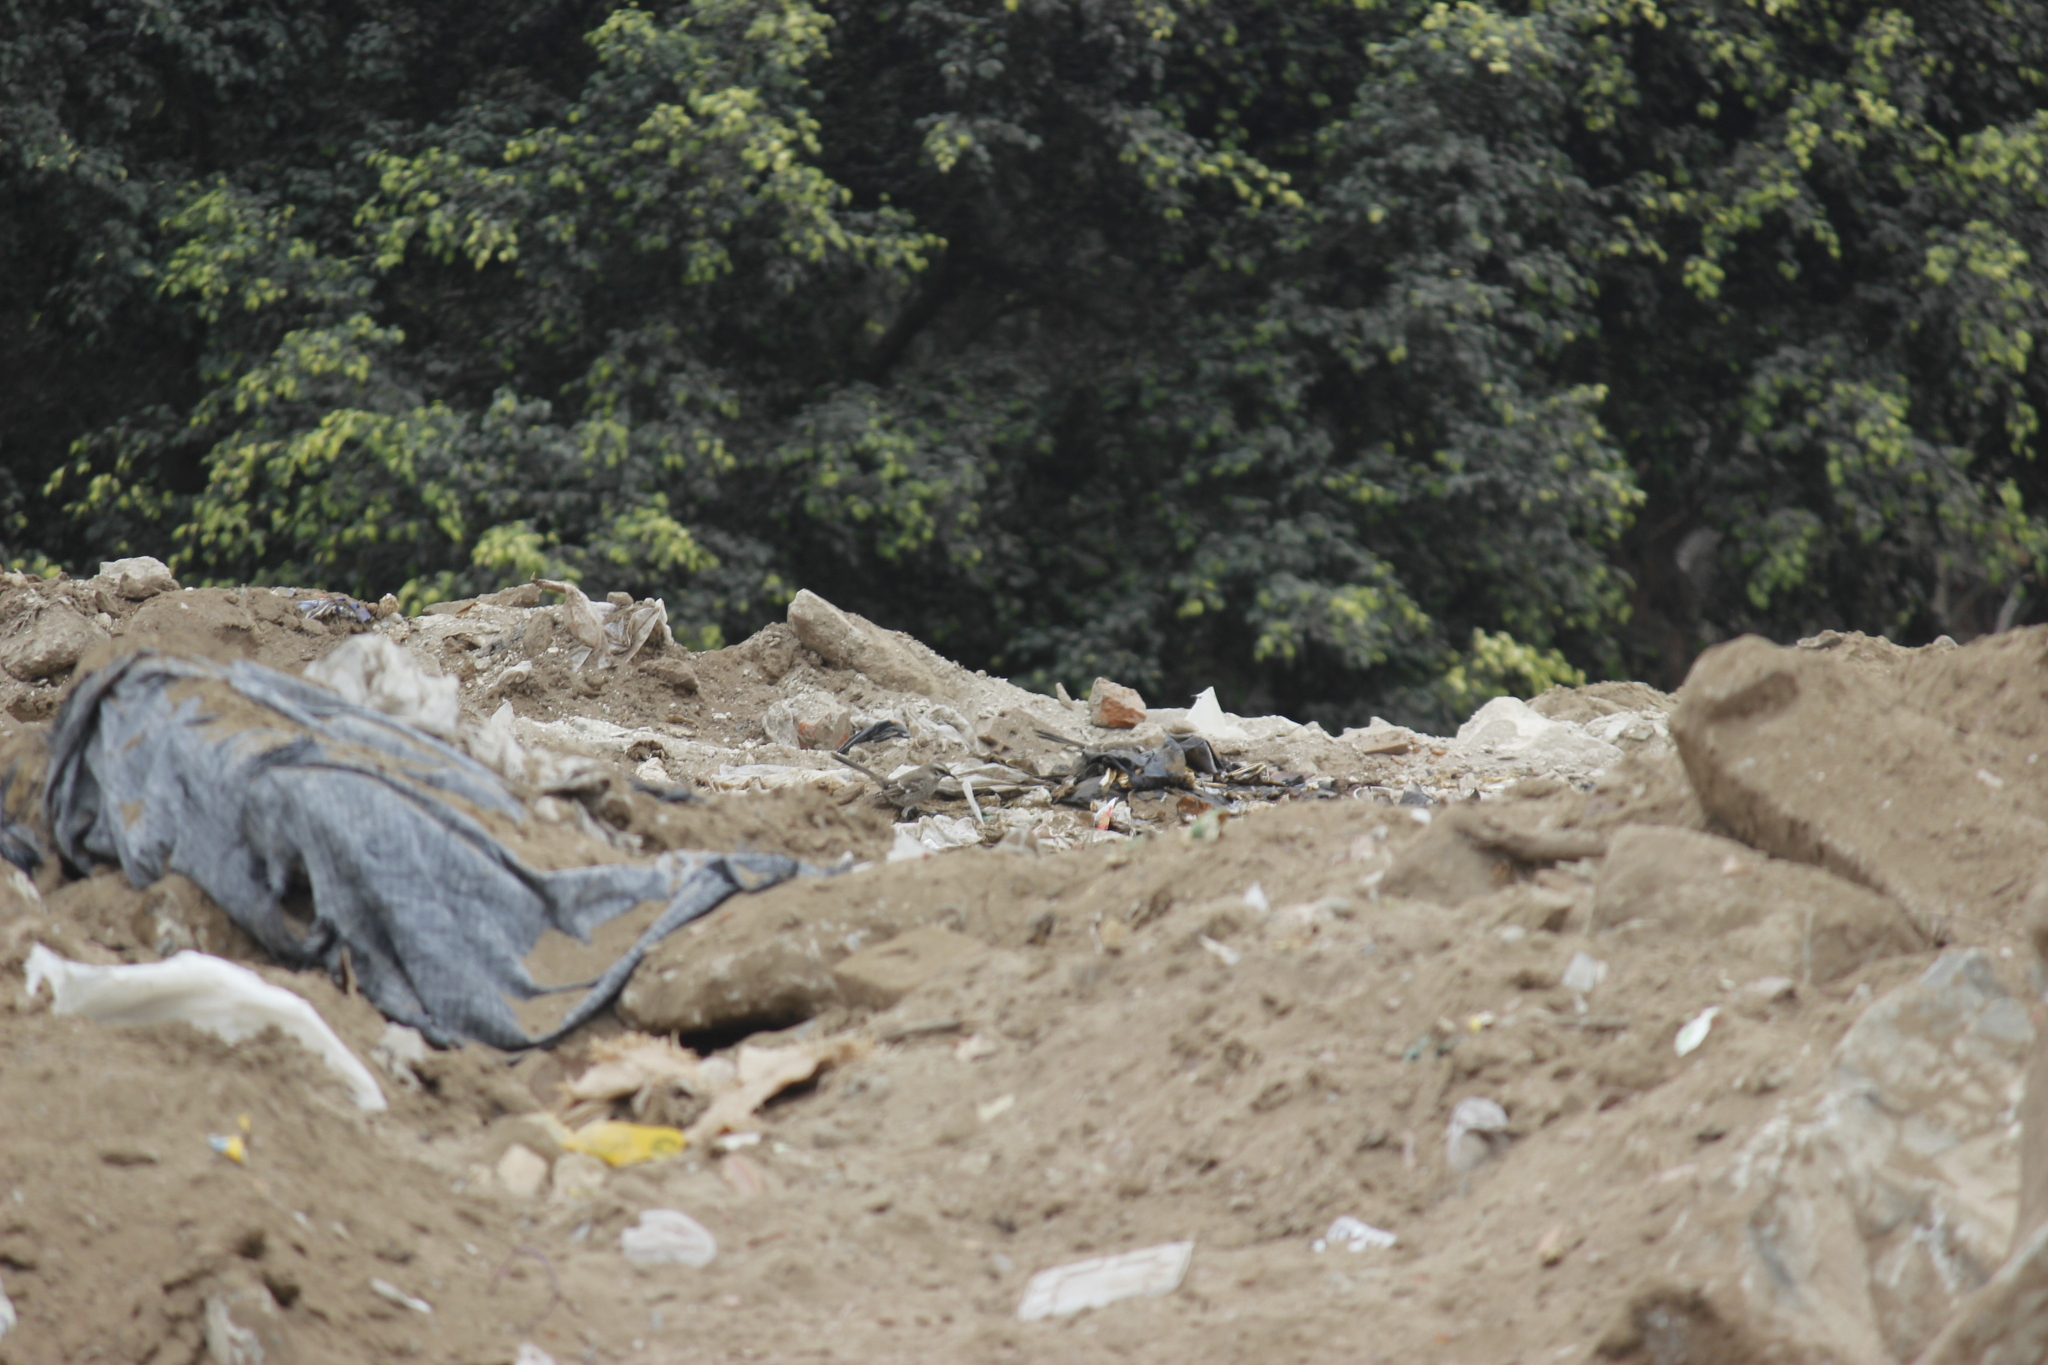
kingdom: Animalia
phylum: Chordata
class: Aves
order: Passeriformes
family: Mimidae
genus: Mimus
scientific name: Mimus longicaudatus
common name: Long-tailed mockingbird
